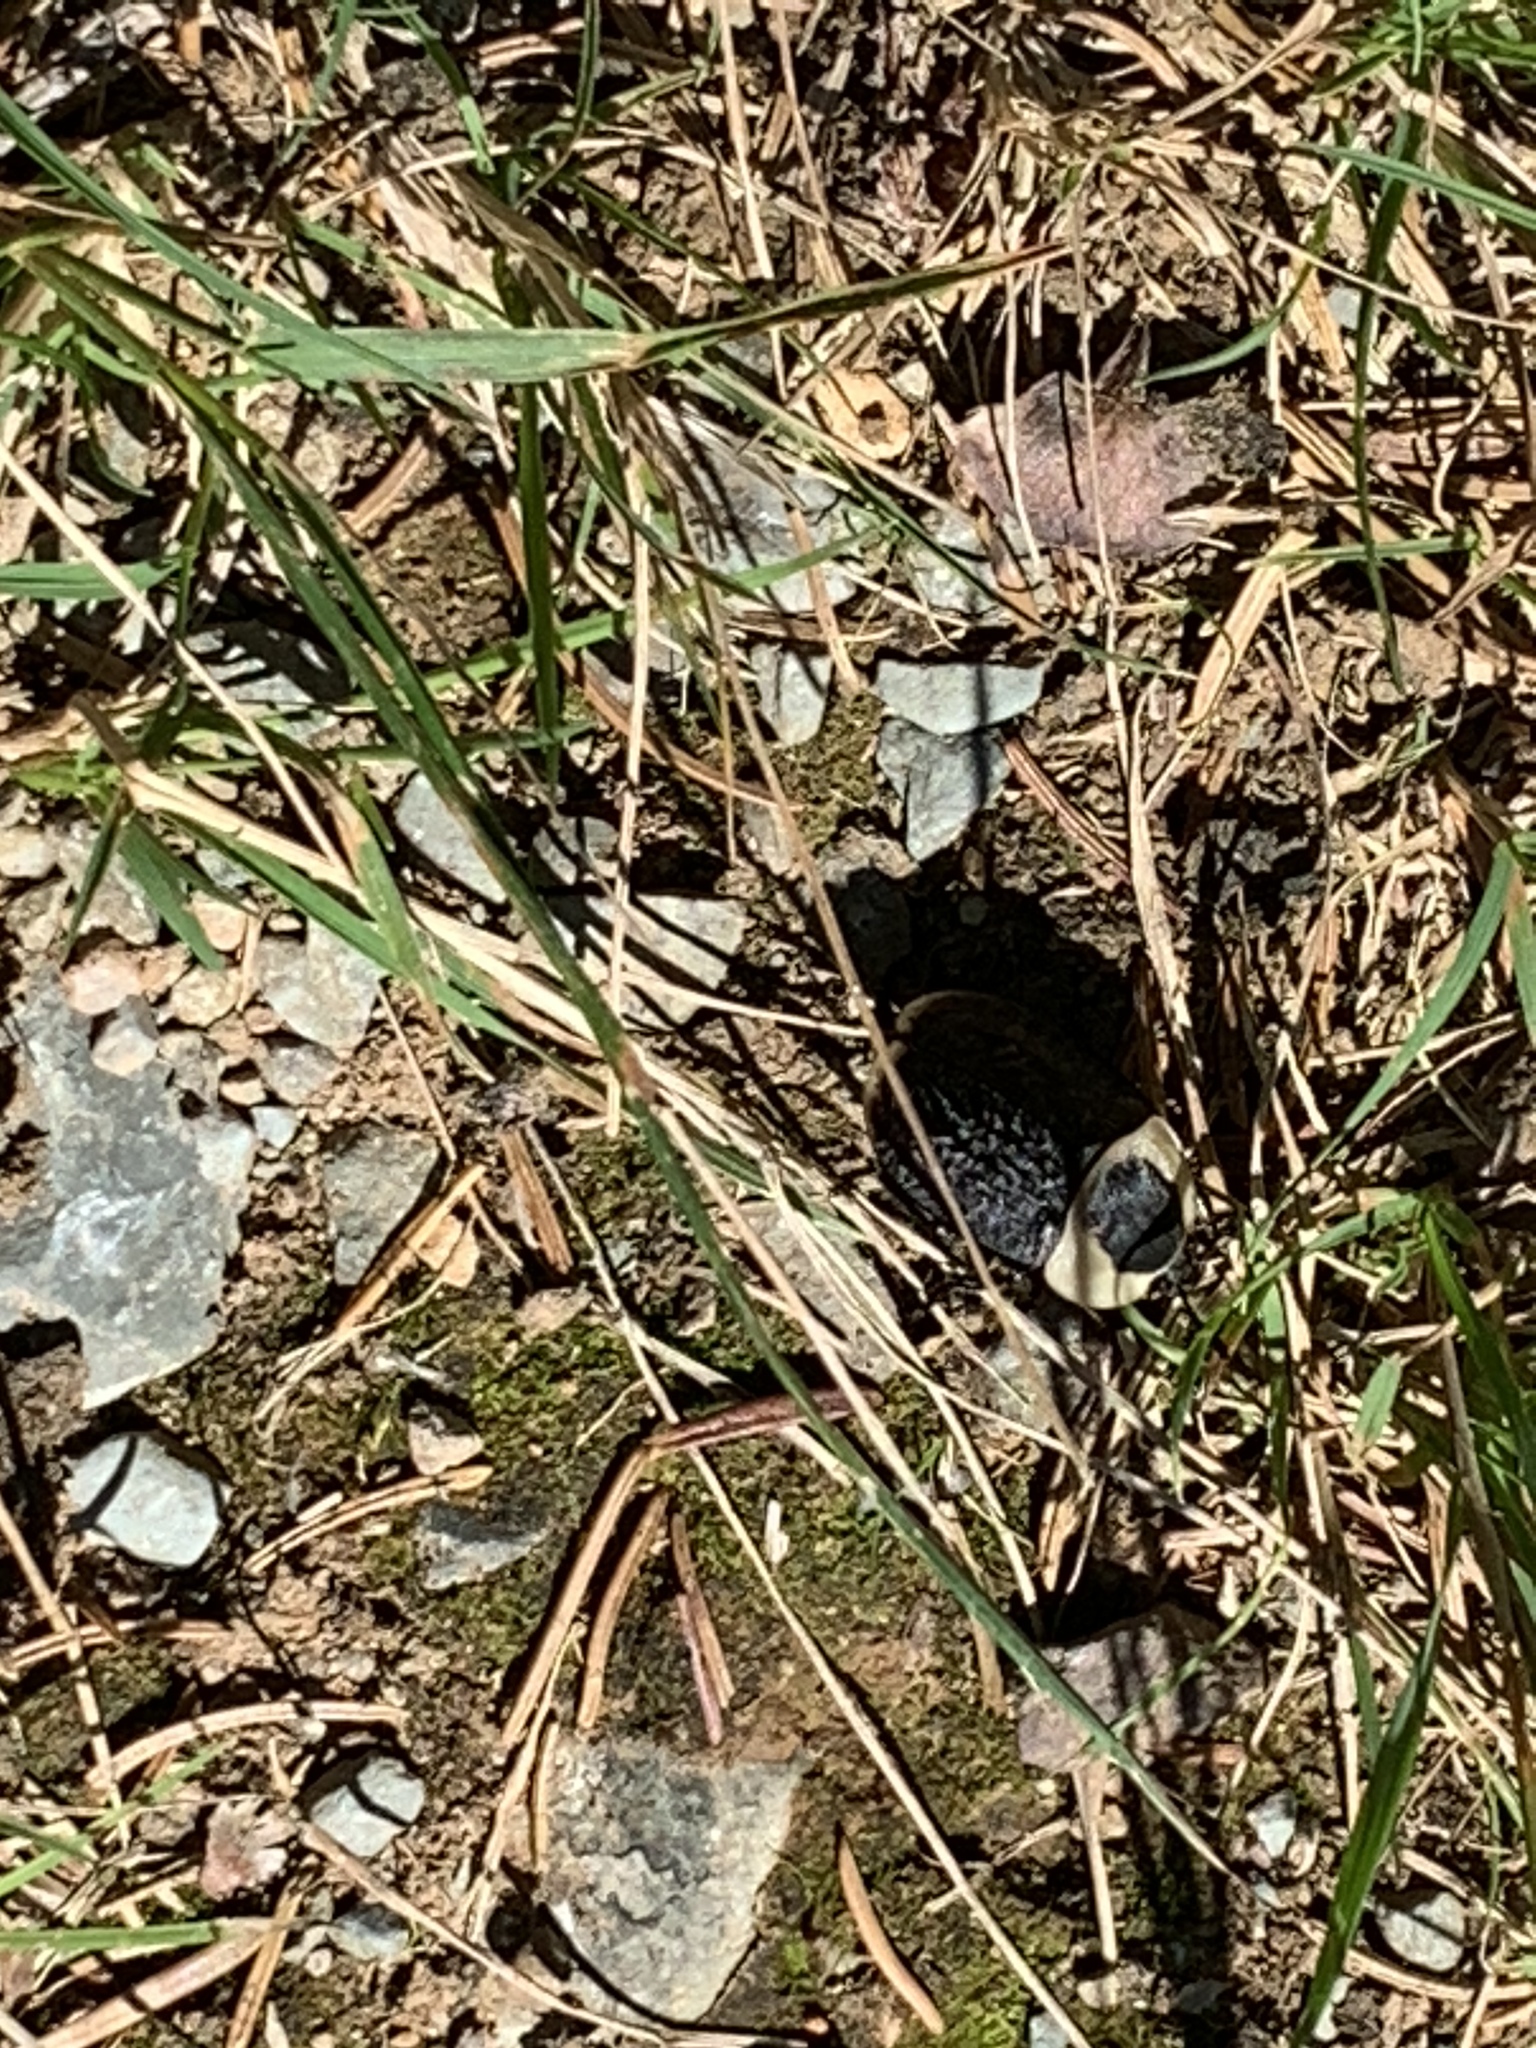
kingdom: Animalia
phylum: Arthropoda
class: Insecta
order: Coleoptera
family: Staphylinidae
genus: Necrophila
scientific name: Necrophila americana
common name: American carrion beetle
